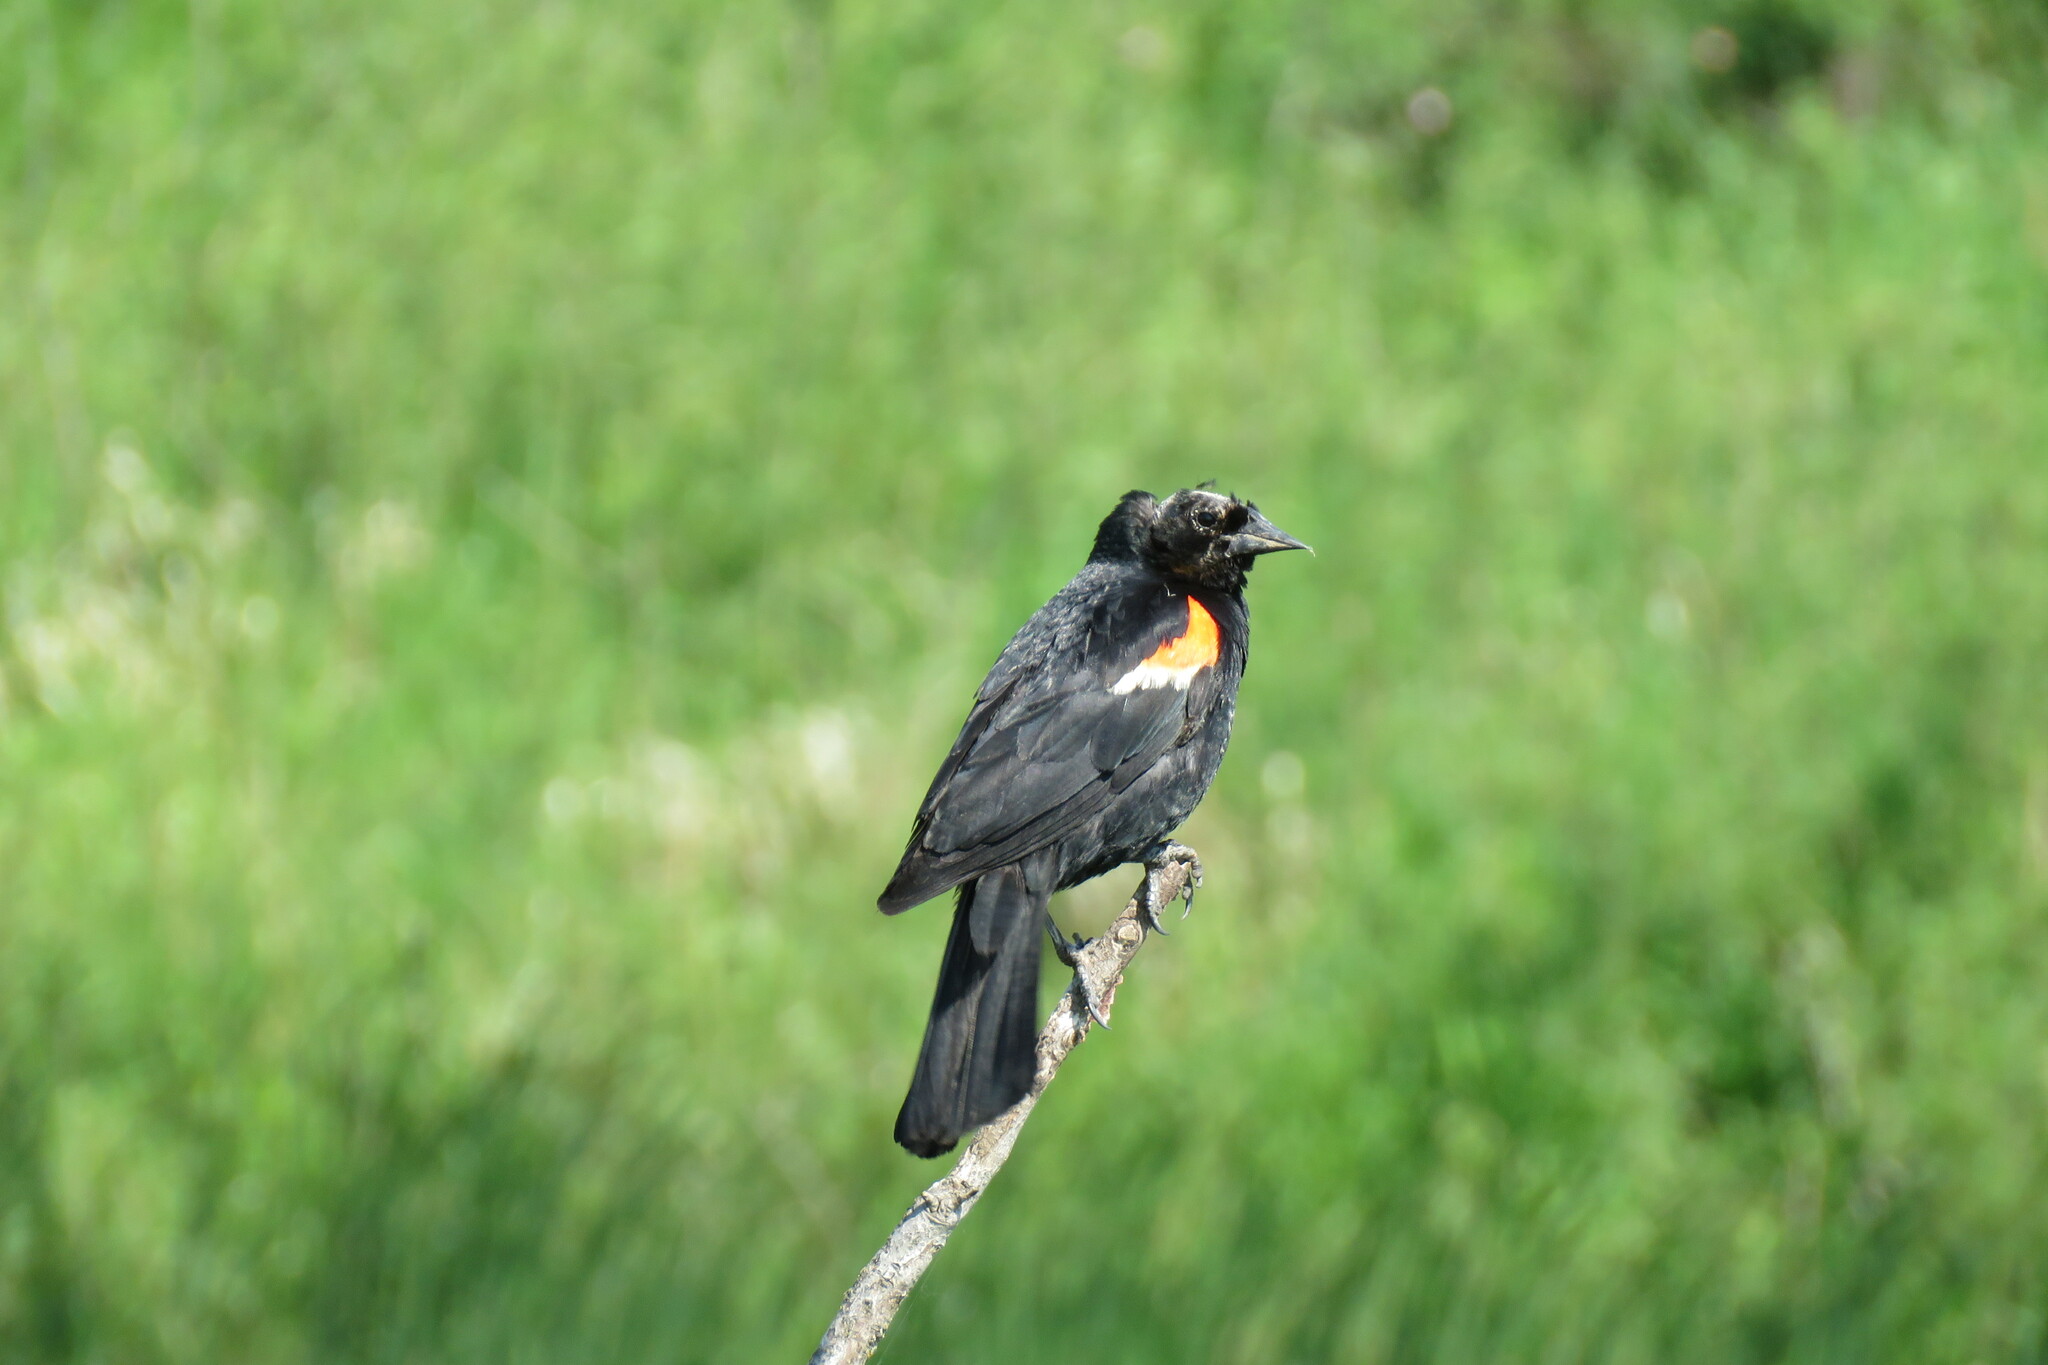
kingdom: Animalia
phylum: Chordata
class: Aves
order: Passeriformes
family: Icteridae
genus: Agelaius
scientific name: Agelaius phoeniceus
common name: Red-winged blackbird
